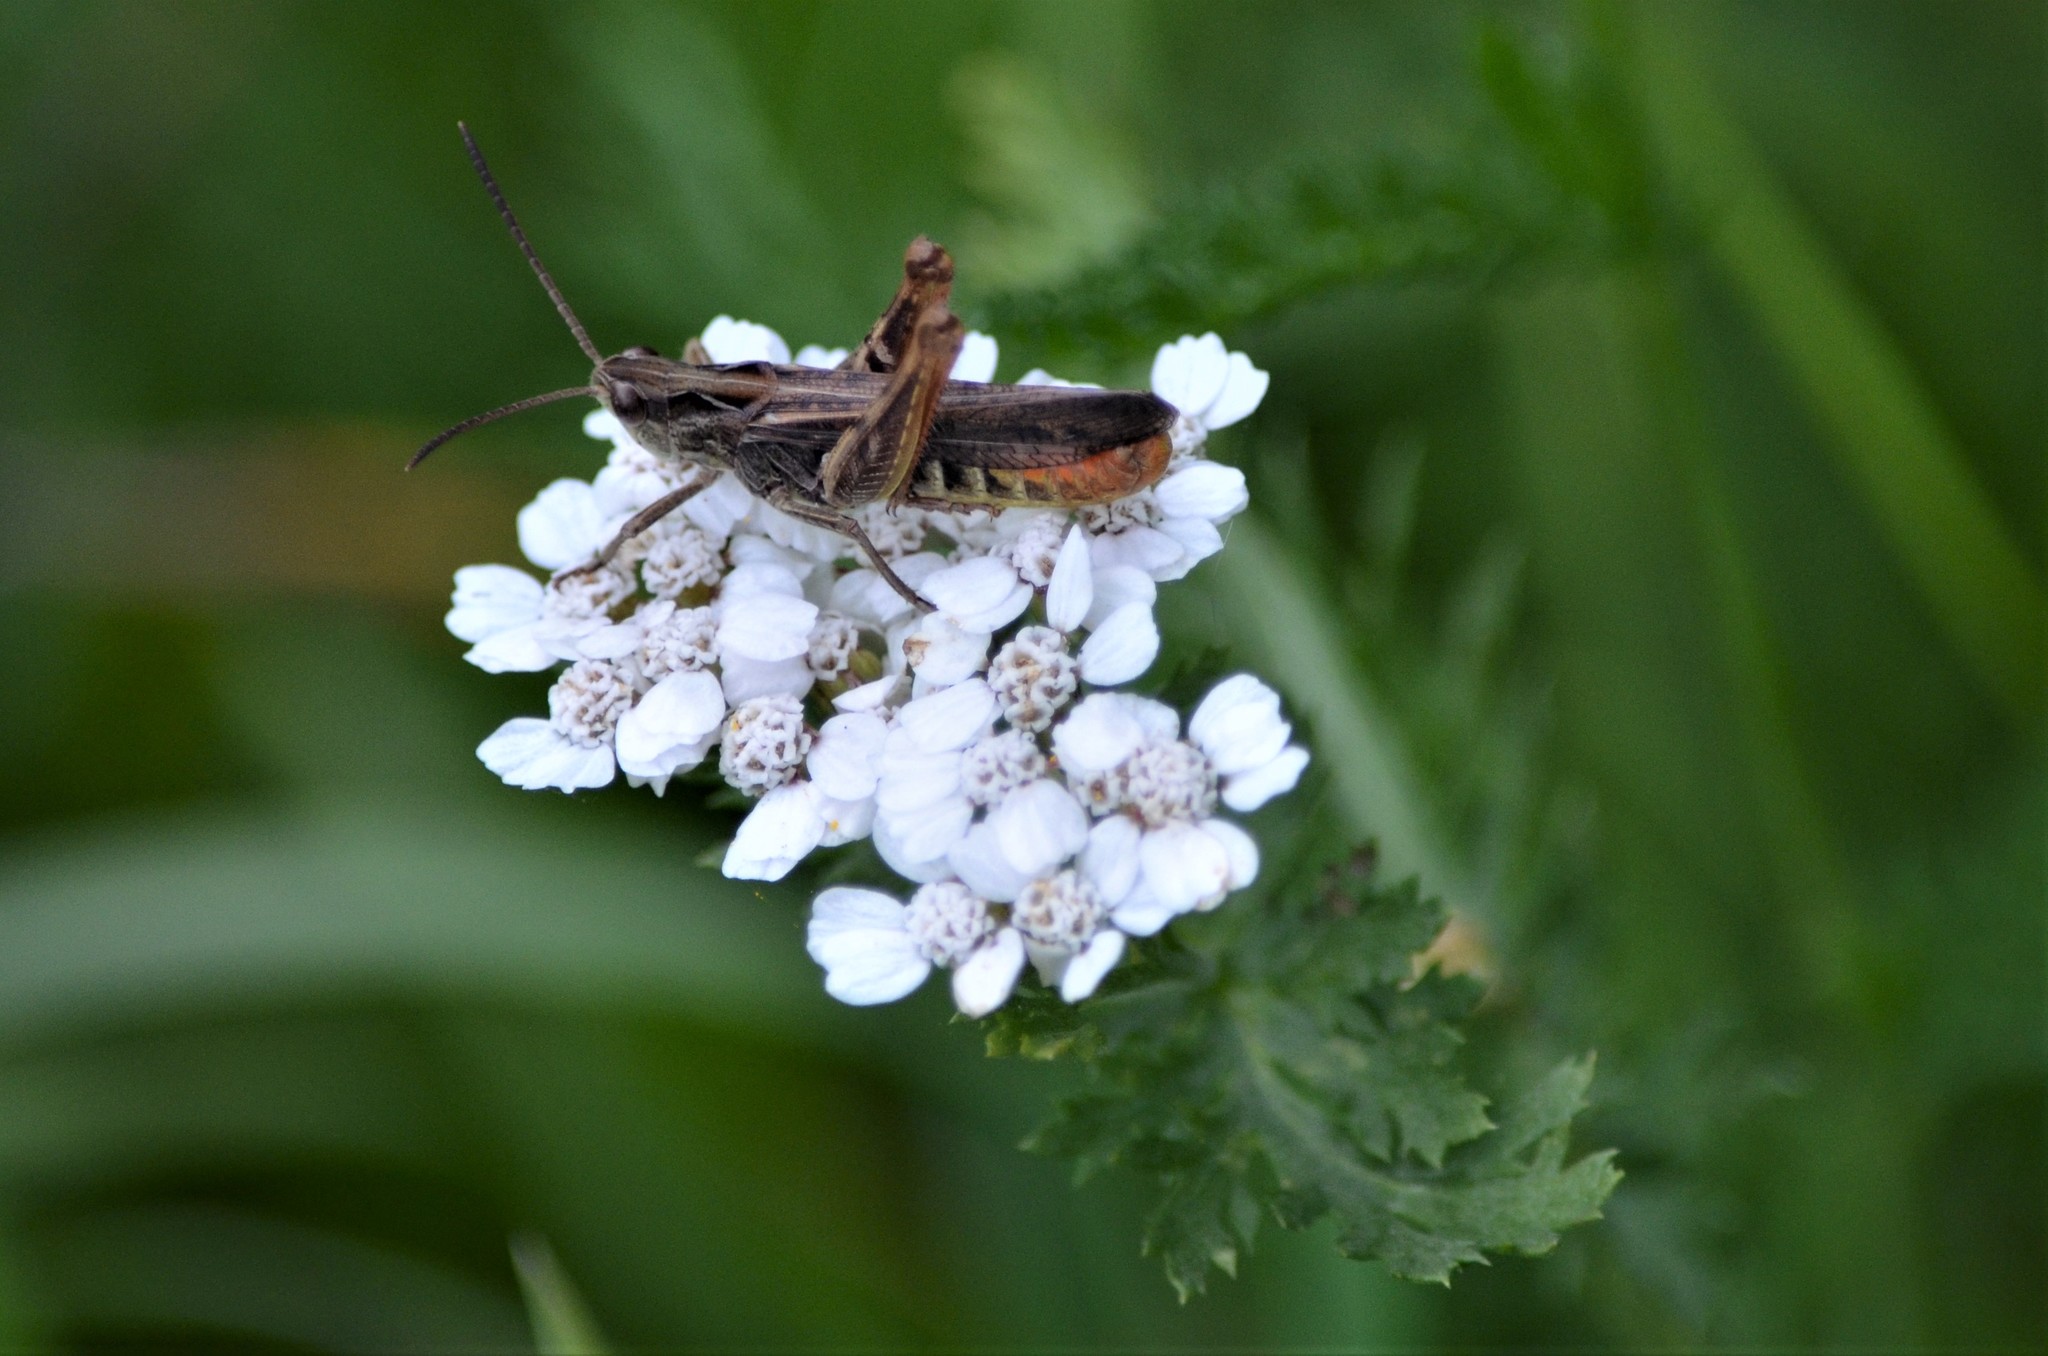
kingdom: Animalia
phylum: Arthropoda
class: Insecta
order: Orthoptera
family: Acrididae
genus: Chorthippus
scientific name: Chorthippus brunneus
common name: Field grasshopper
